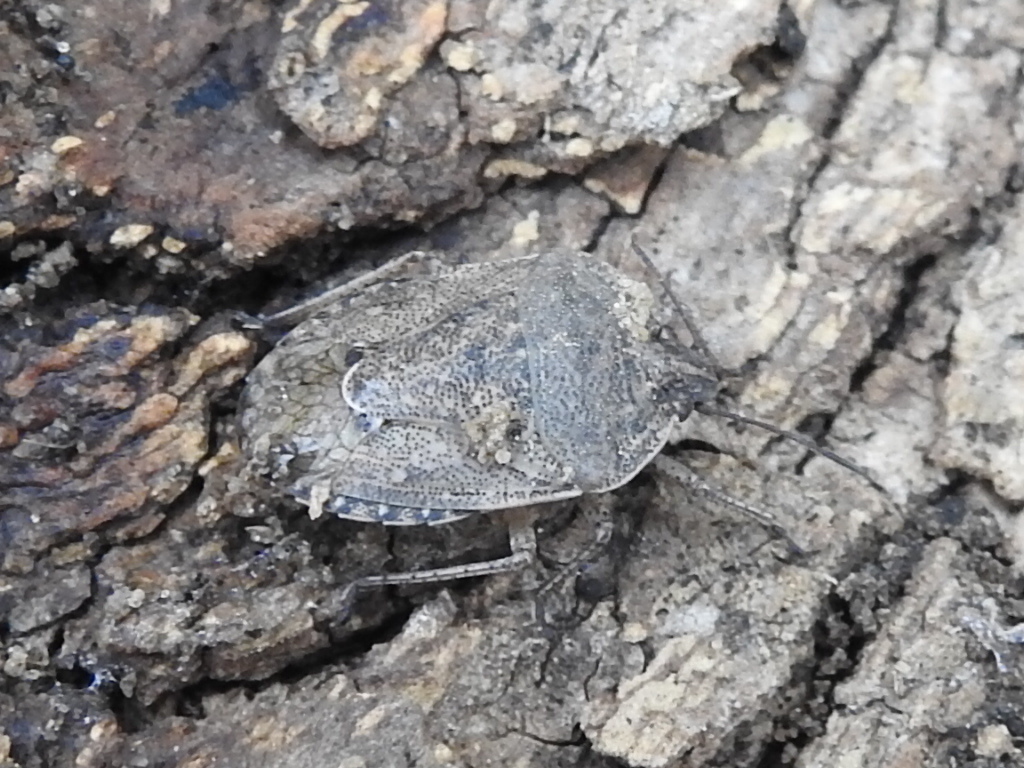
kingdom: Animalia
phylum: Arthropoda
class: Insecta
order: Hemiptera
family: Pentatomidae
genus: Hymenarcys
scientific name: Hymenarcys nervosa
